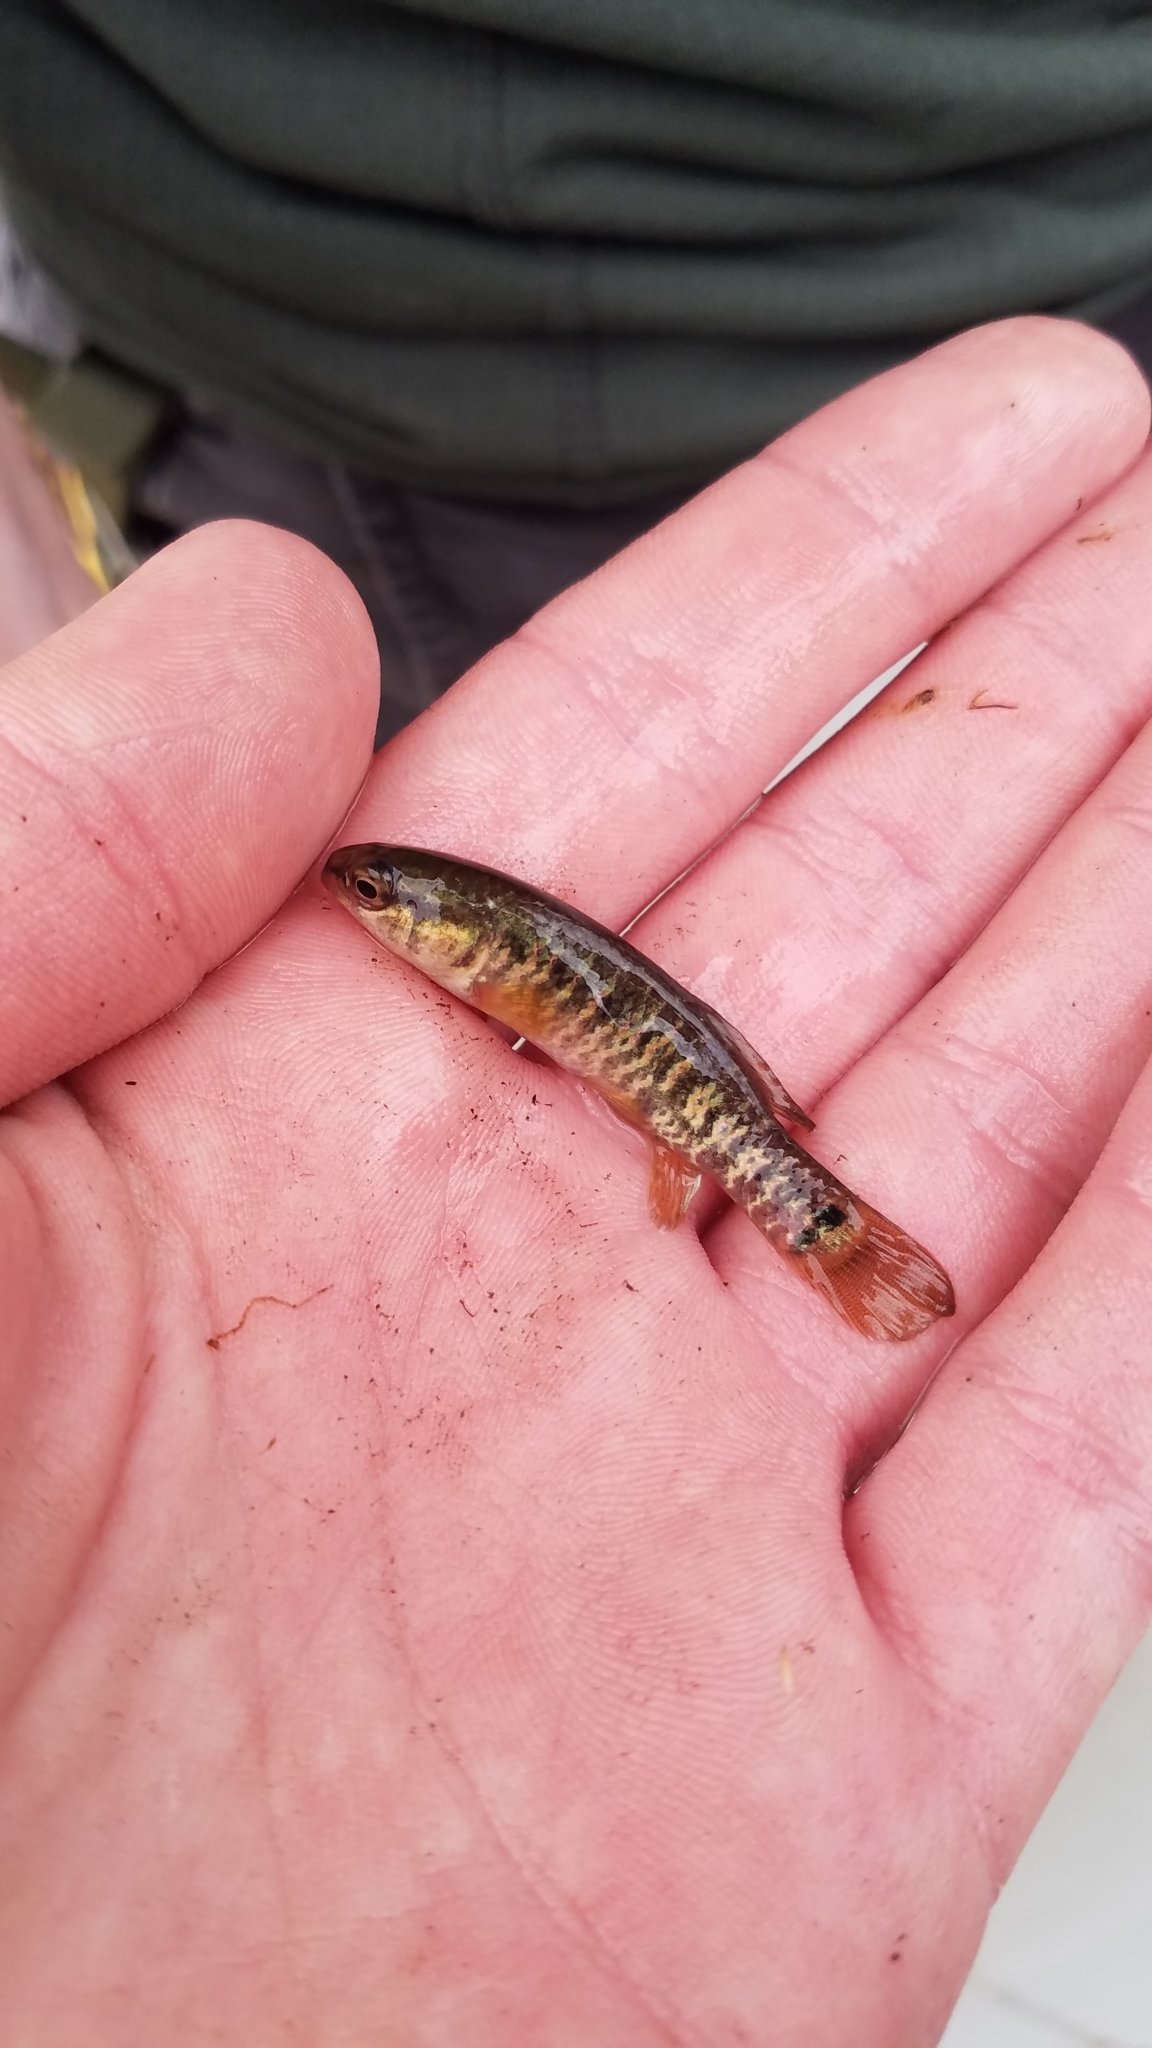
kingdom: Animalia
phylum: Chordata
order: Esociformes
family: Umbridae
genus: Umbra
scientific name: Umbra limi
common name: Central mudminnow
